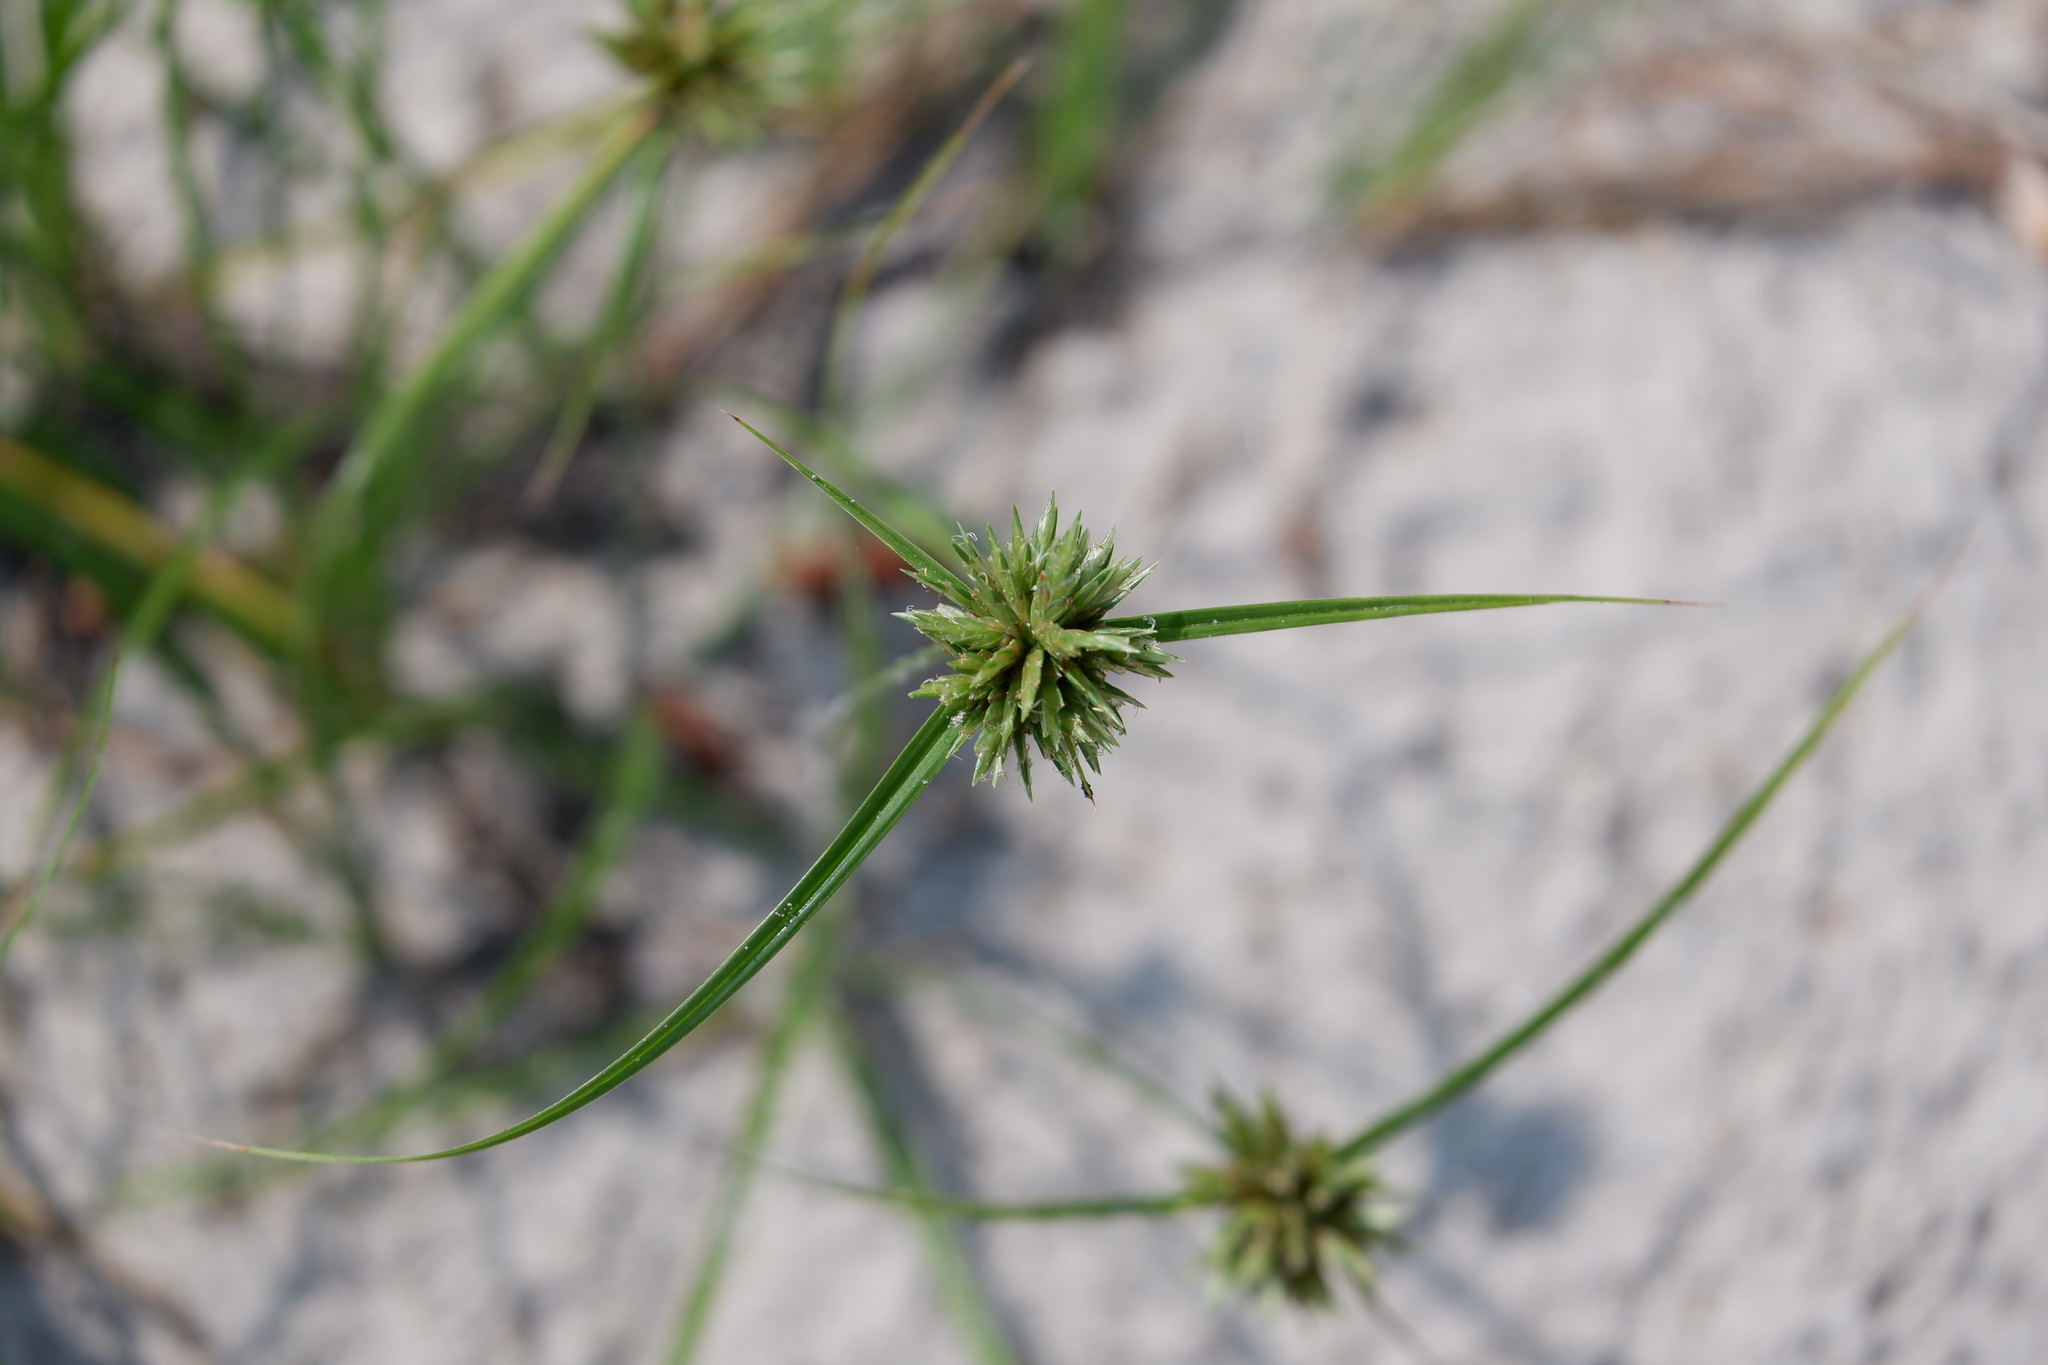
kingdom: Plantae
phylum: Tracheophyta
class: Liliopsida
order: Poales
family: Cyperaceae
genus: Cyperus
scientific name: Cyperus lupulinus
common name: Great plains flatsedge
